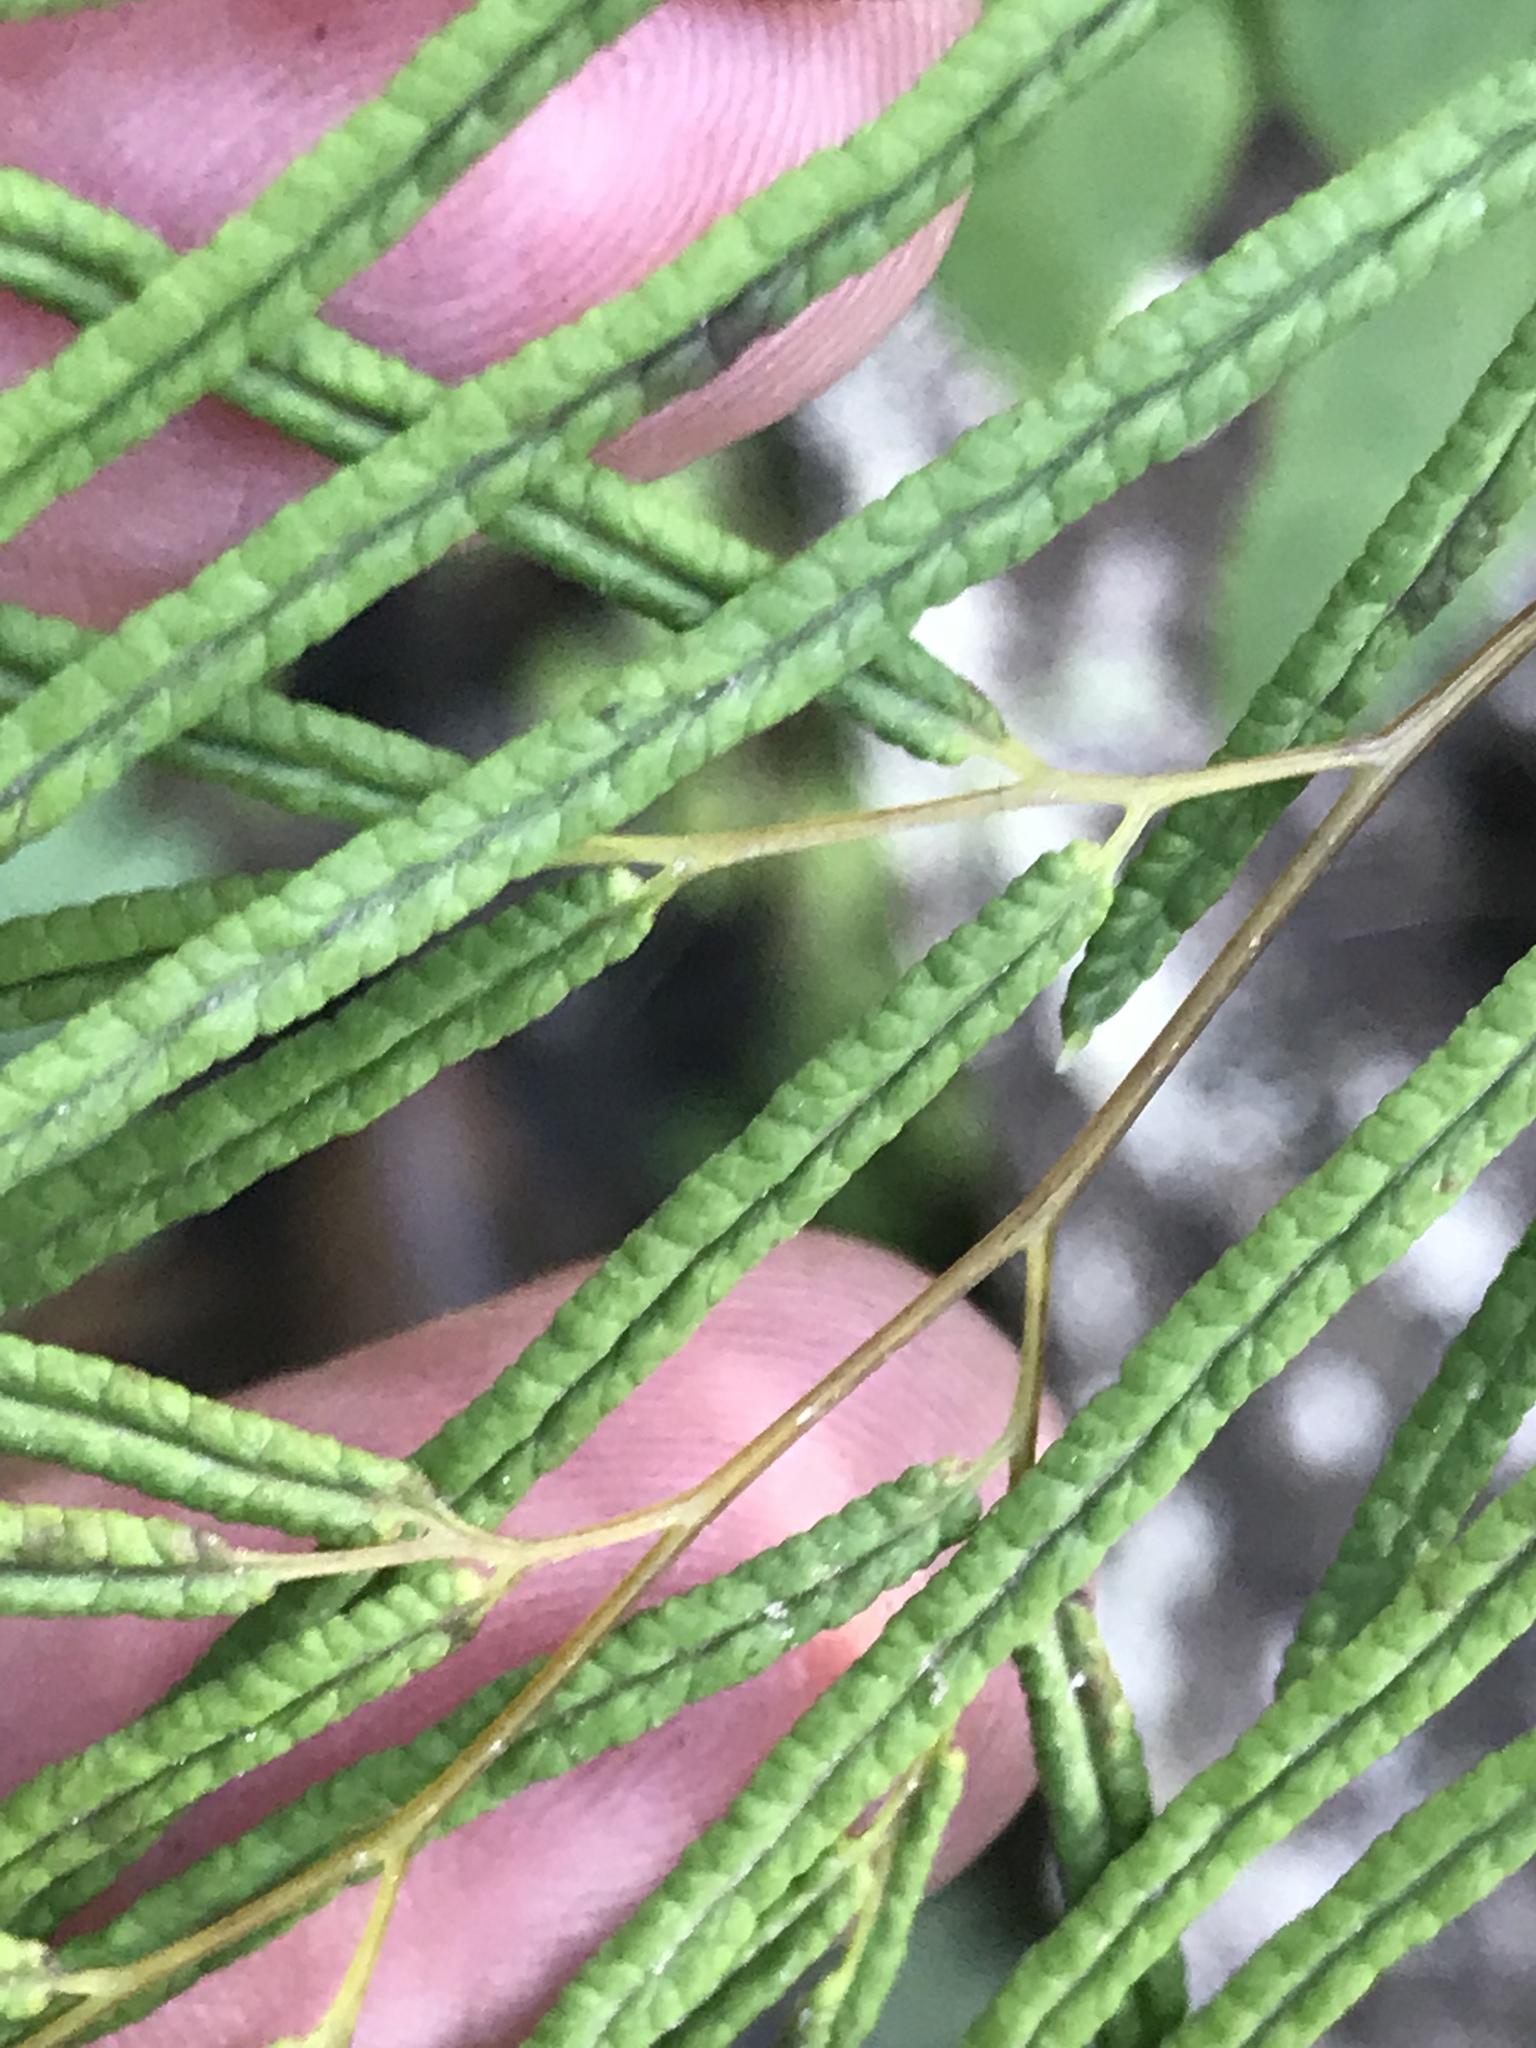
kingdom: Plantae
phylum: Tracheophyta
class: Polypodiopsida
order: Polypodiales
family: Pteridaceae
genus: Llavea
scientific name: Llavea cordifolia
